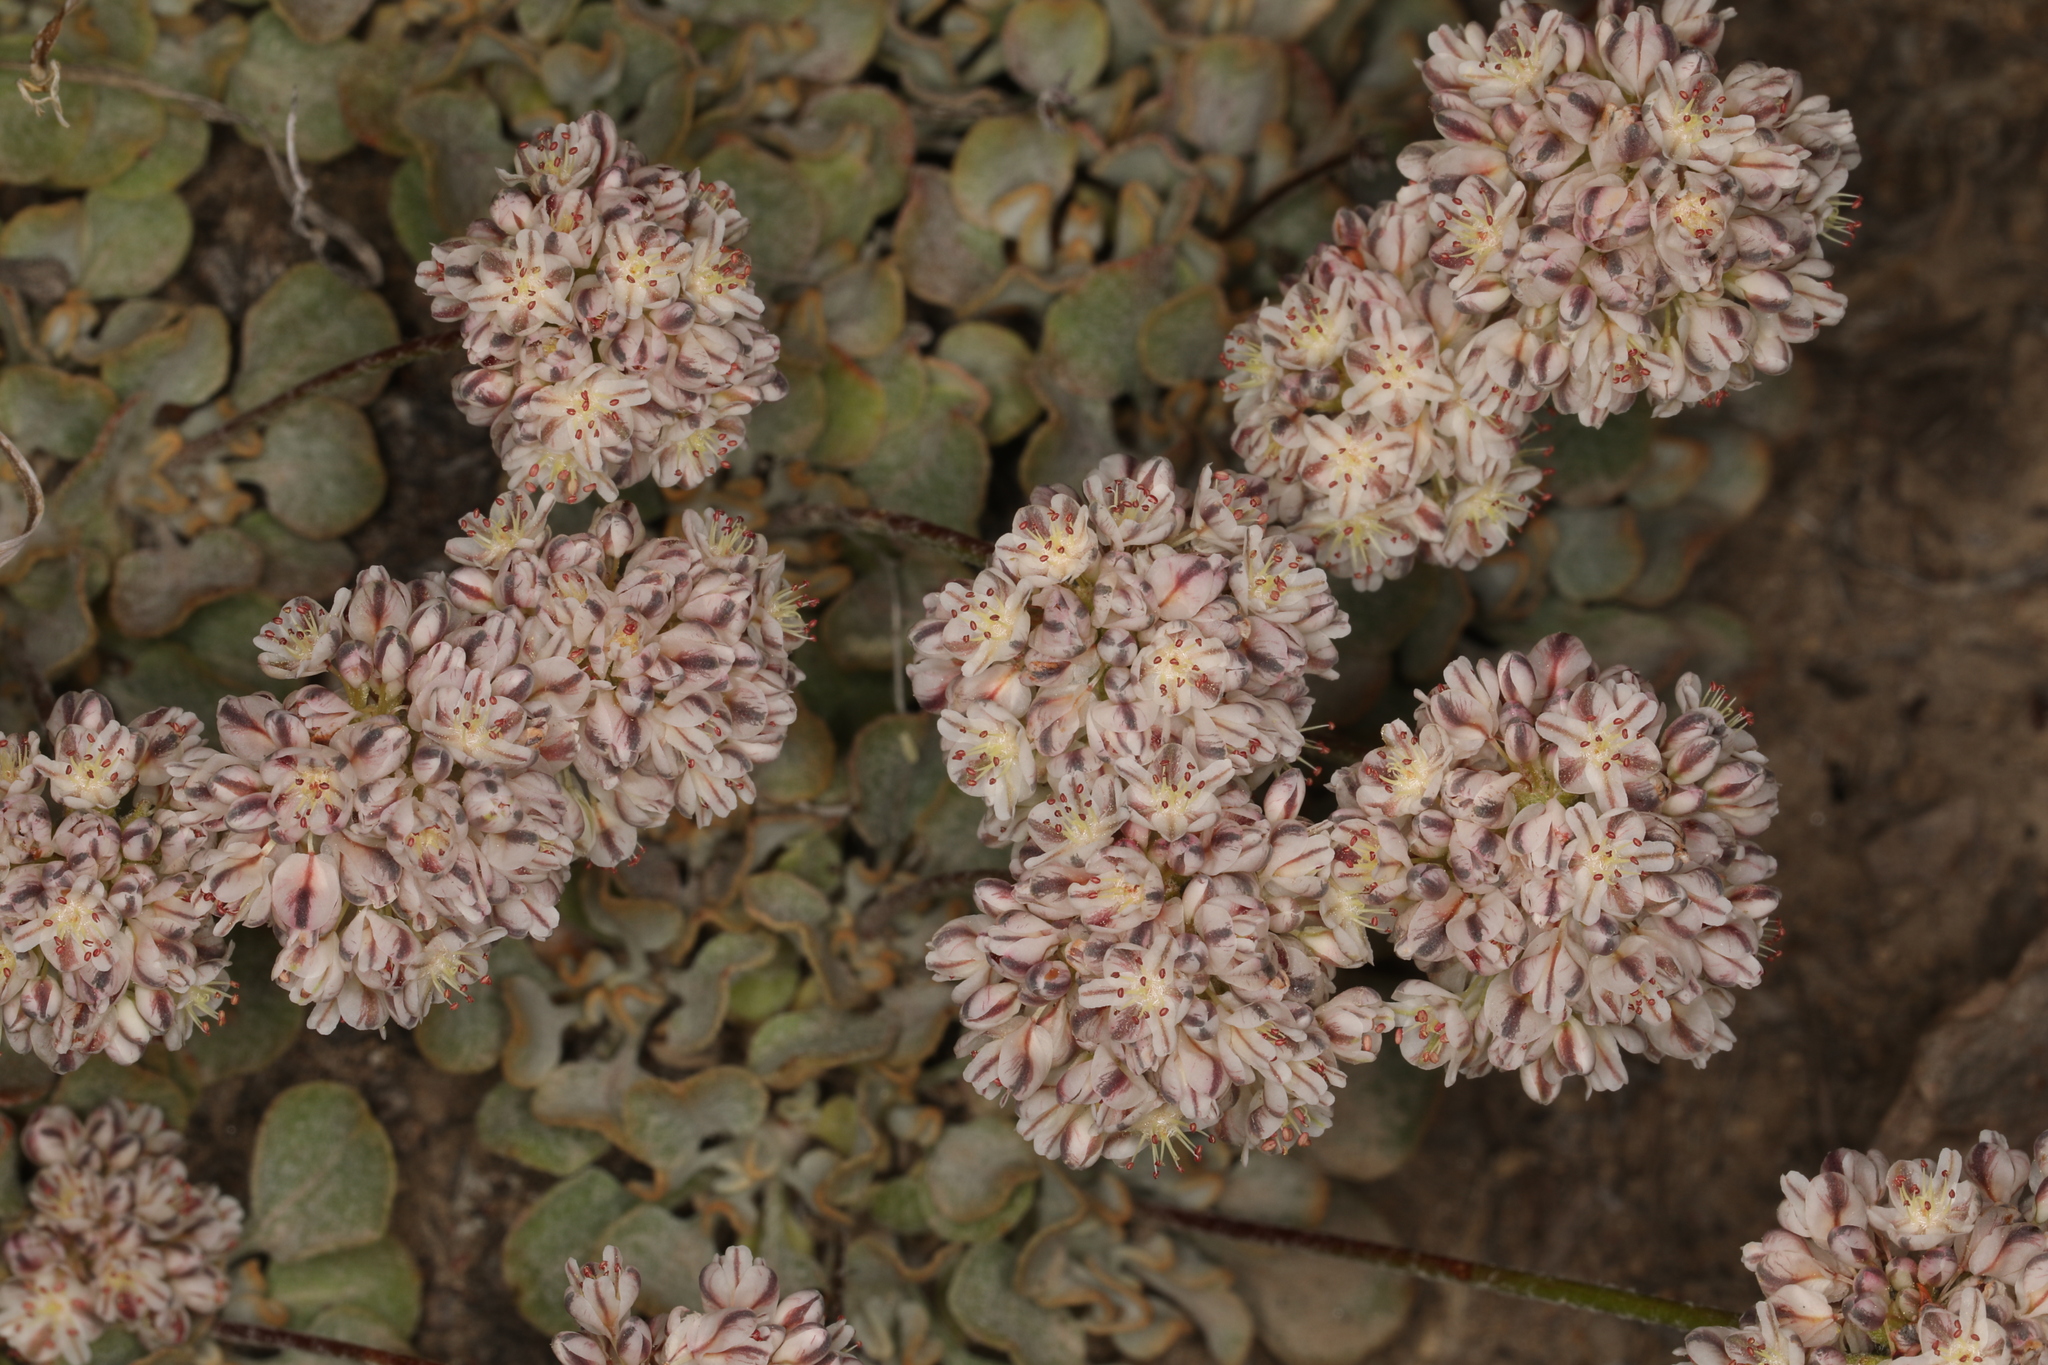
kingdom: Plantae
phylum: Tracheophyta
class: Magnoliopsida
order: Caryophyllales
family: Polygonaceae
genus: Eriogonum
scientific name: Eriogonum ovalifolium
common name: Cushion buckwheat
